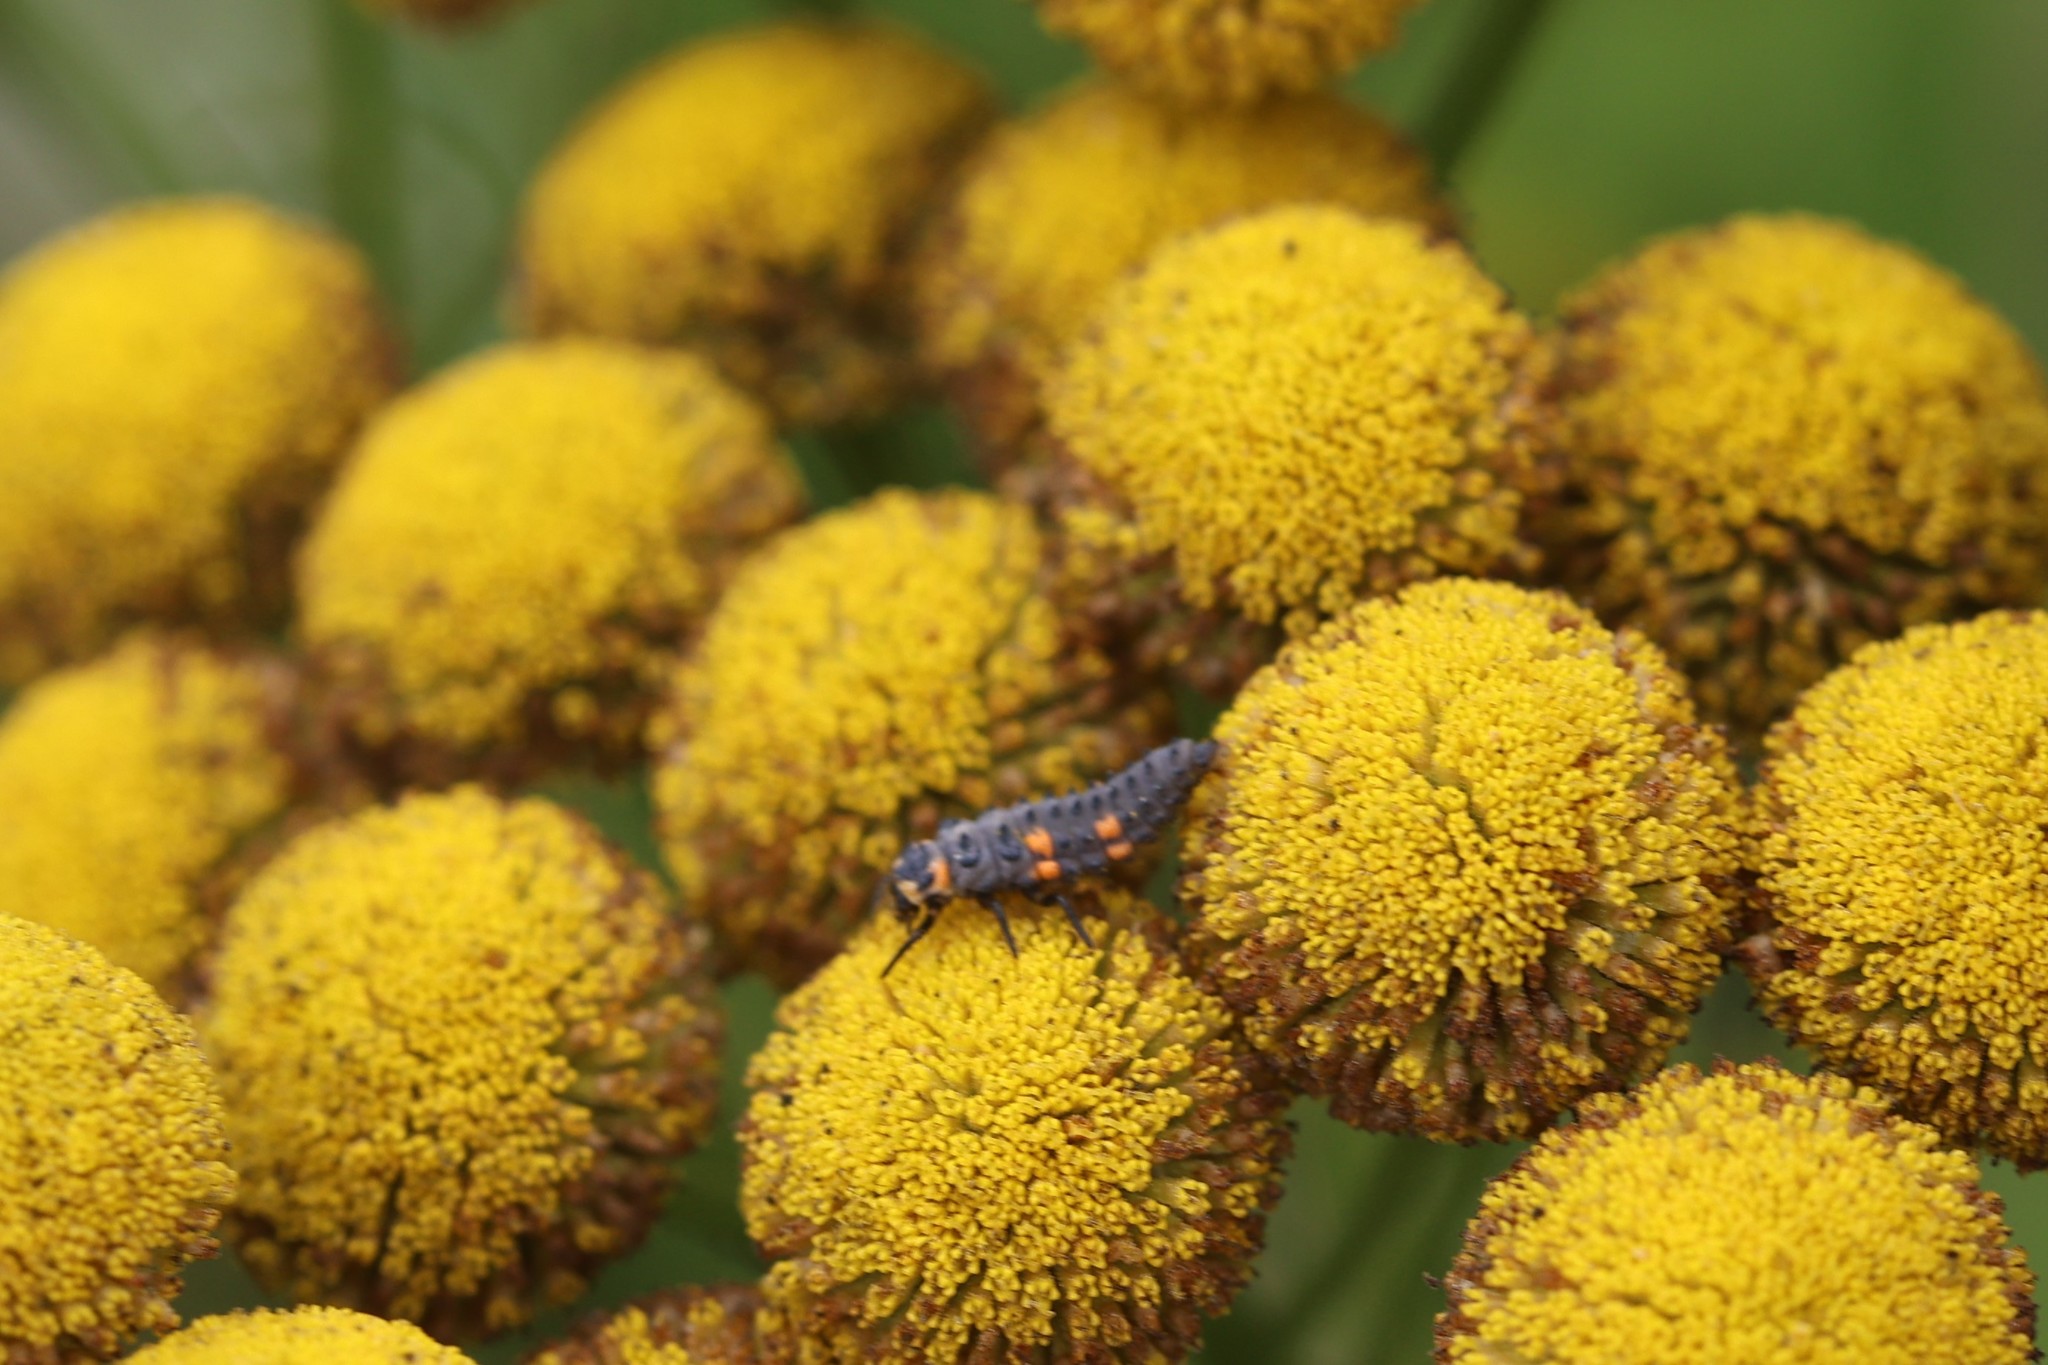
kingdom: Animalia
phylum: Arthropoda
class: Insecta
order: Coleoptera
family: Coccinellidae
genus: Coccinella
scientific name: Coccinella septempunctata
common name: Sevenspotted lady beetle
